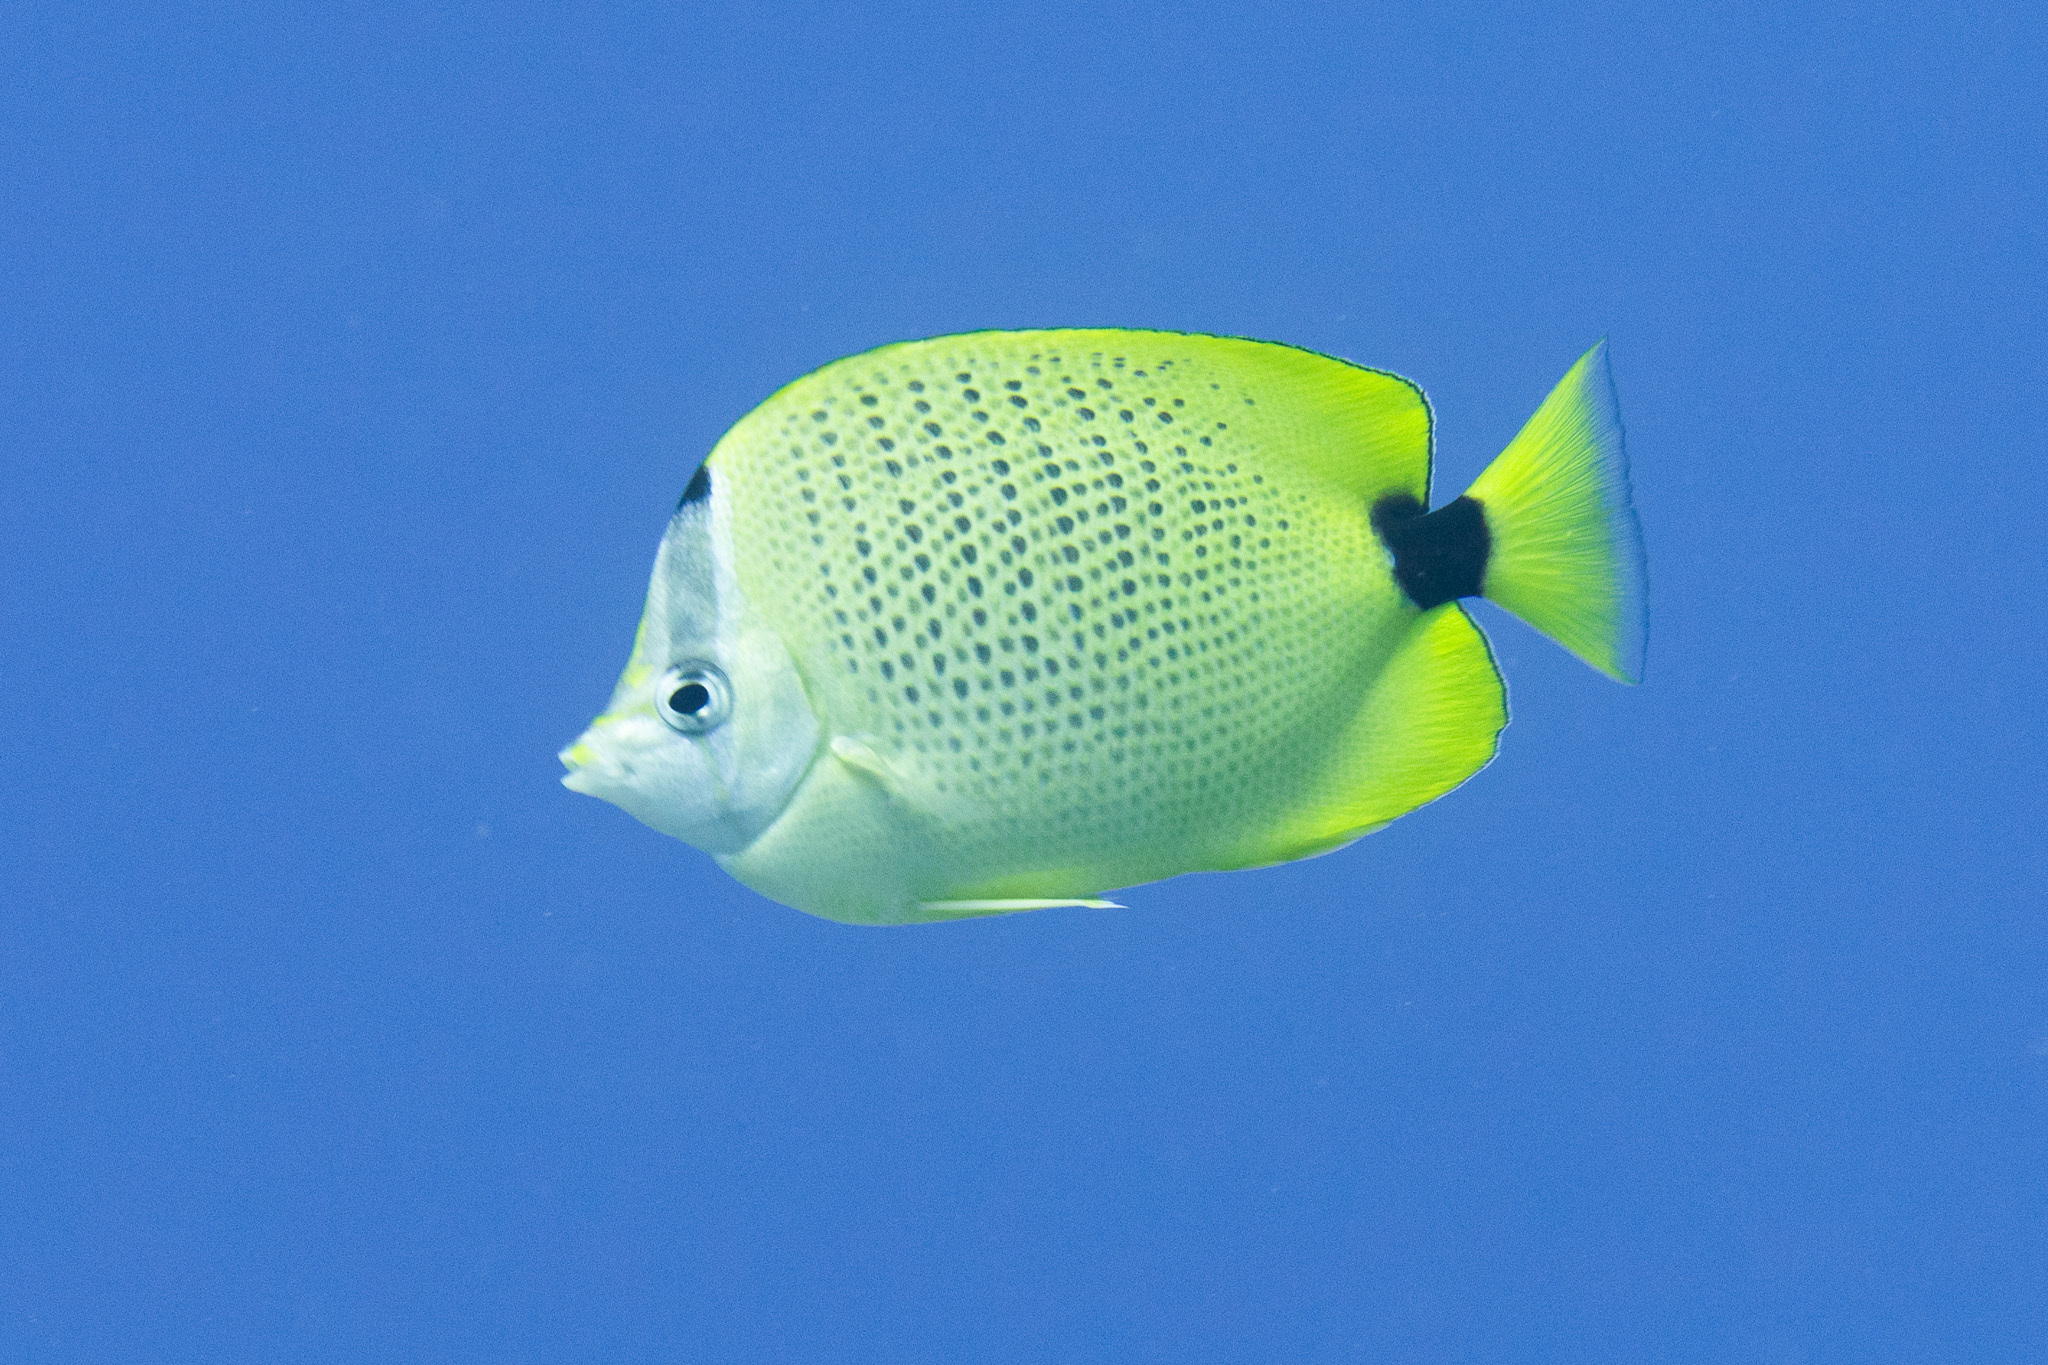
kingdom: Animalia
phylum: Chordata
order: Perciformes
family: Chaetodontidae
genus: Chaetodon
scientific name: Chaetodon miliaris
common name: Lemon butterflyfish
